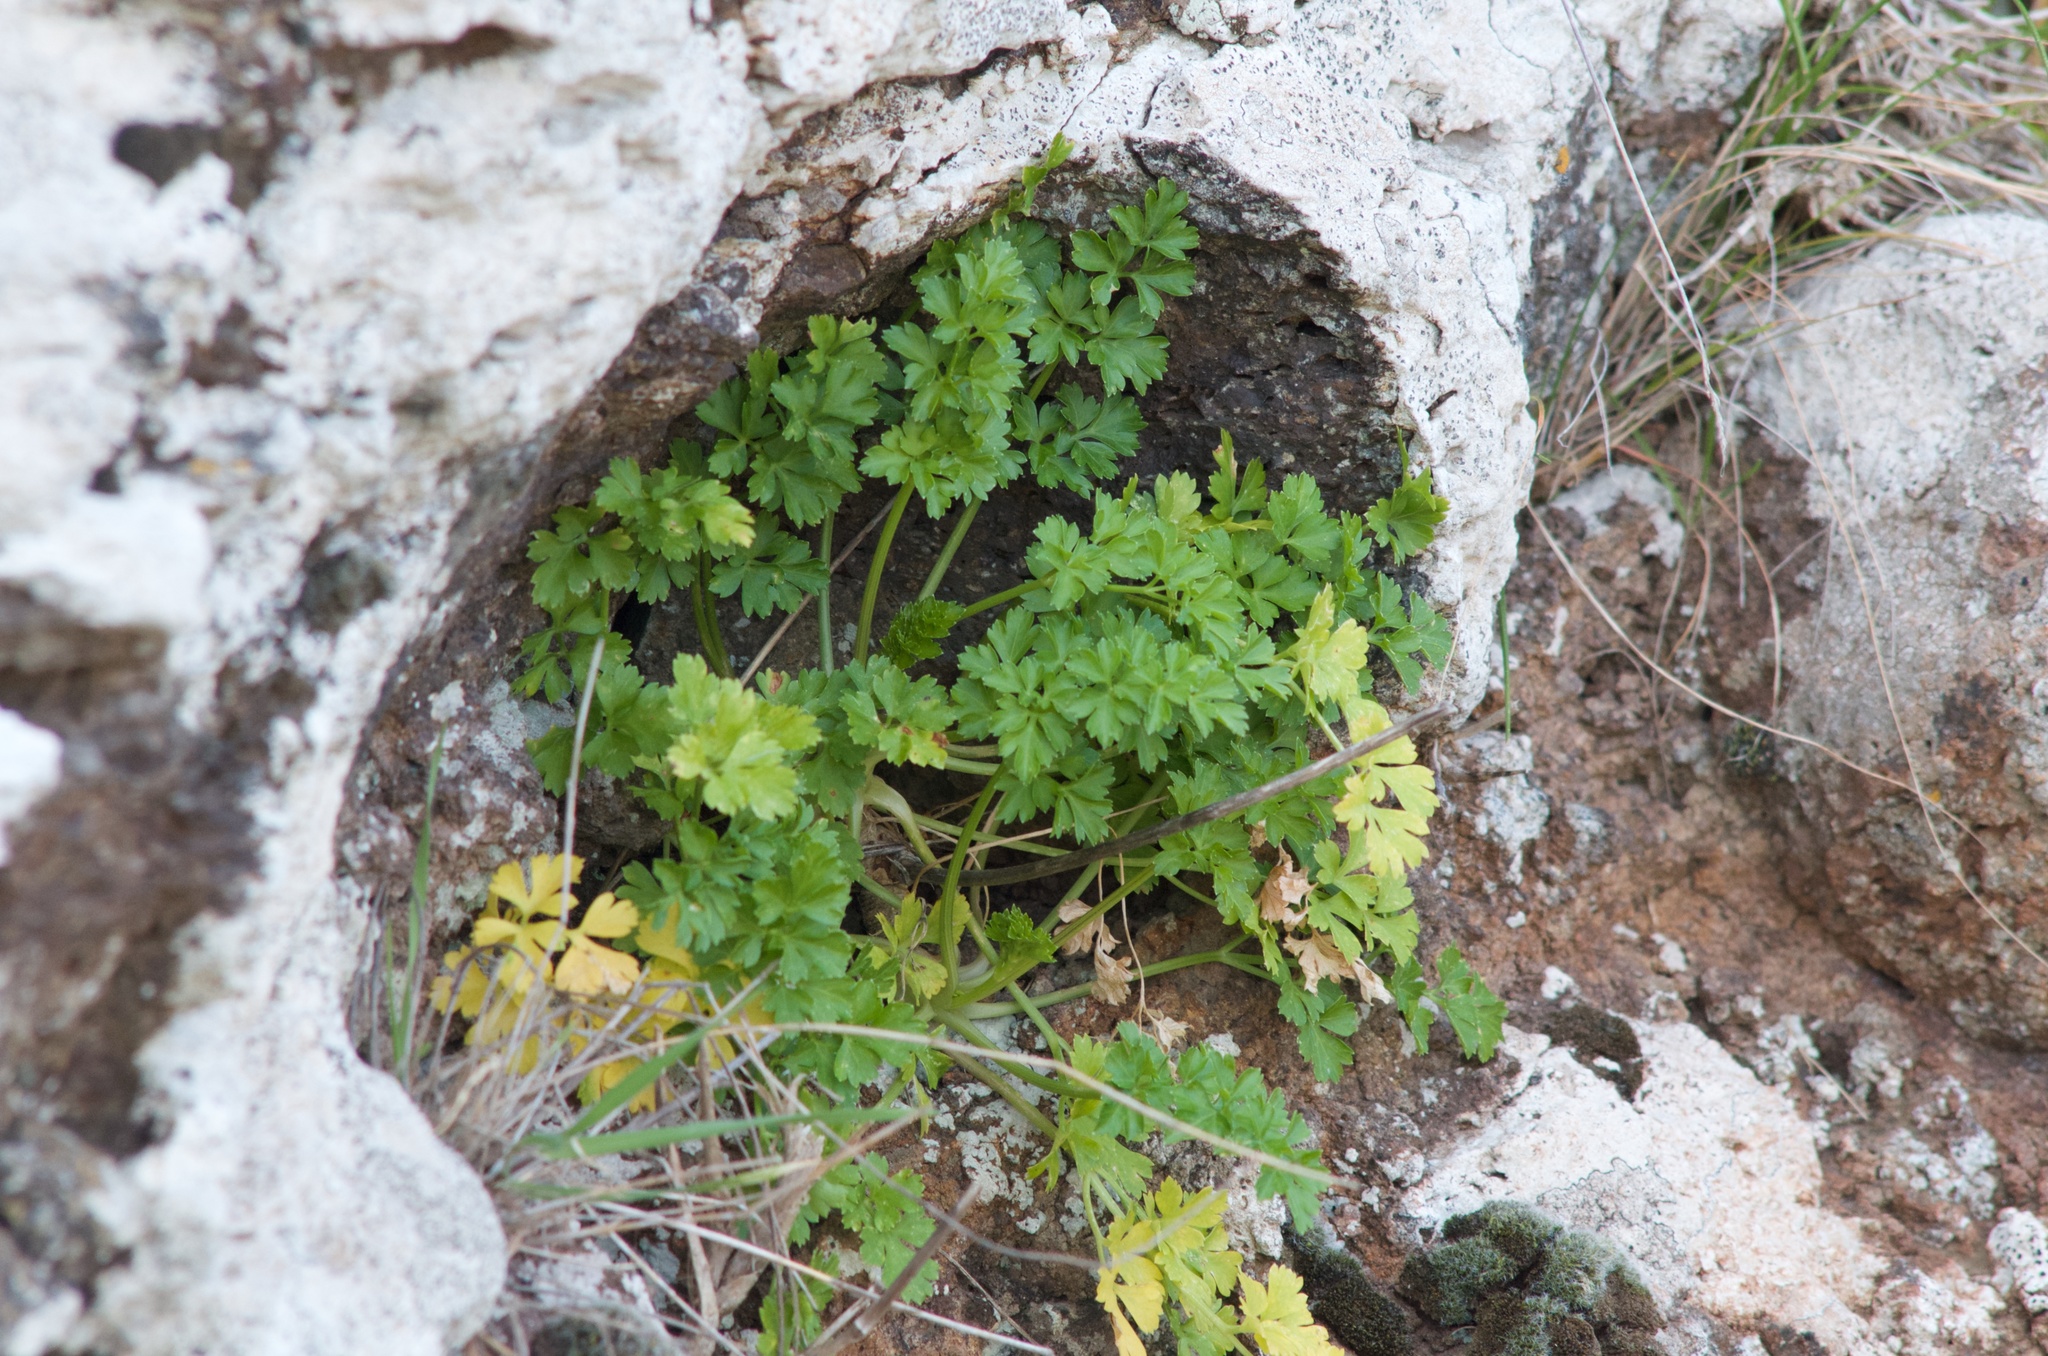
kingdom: Plantae
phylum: Tracheophyta
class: Magnoliopsida
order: Apiales
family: Apiaceae
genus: Petroselinum
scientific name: Petroselinum crispum
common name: Parsley
